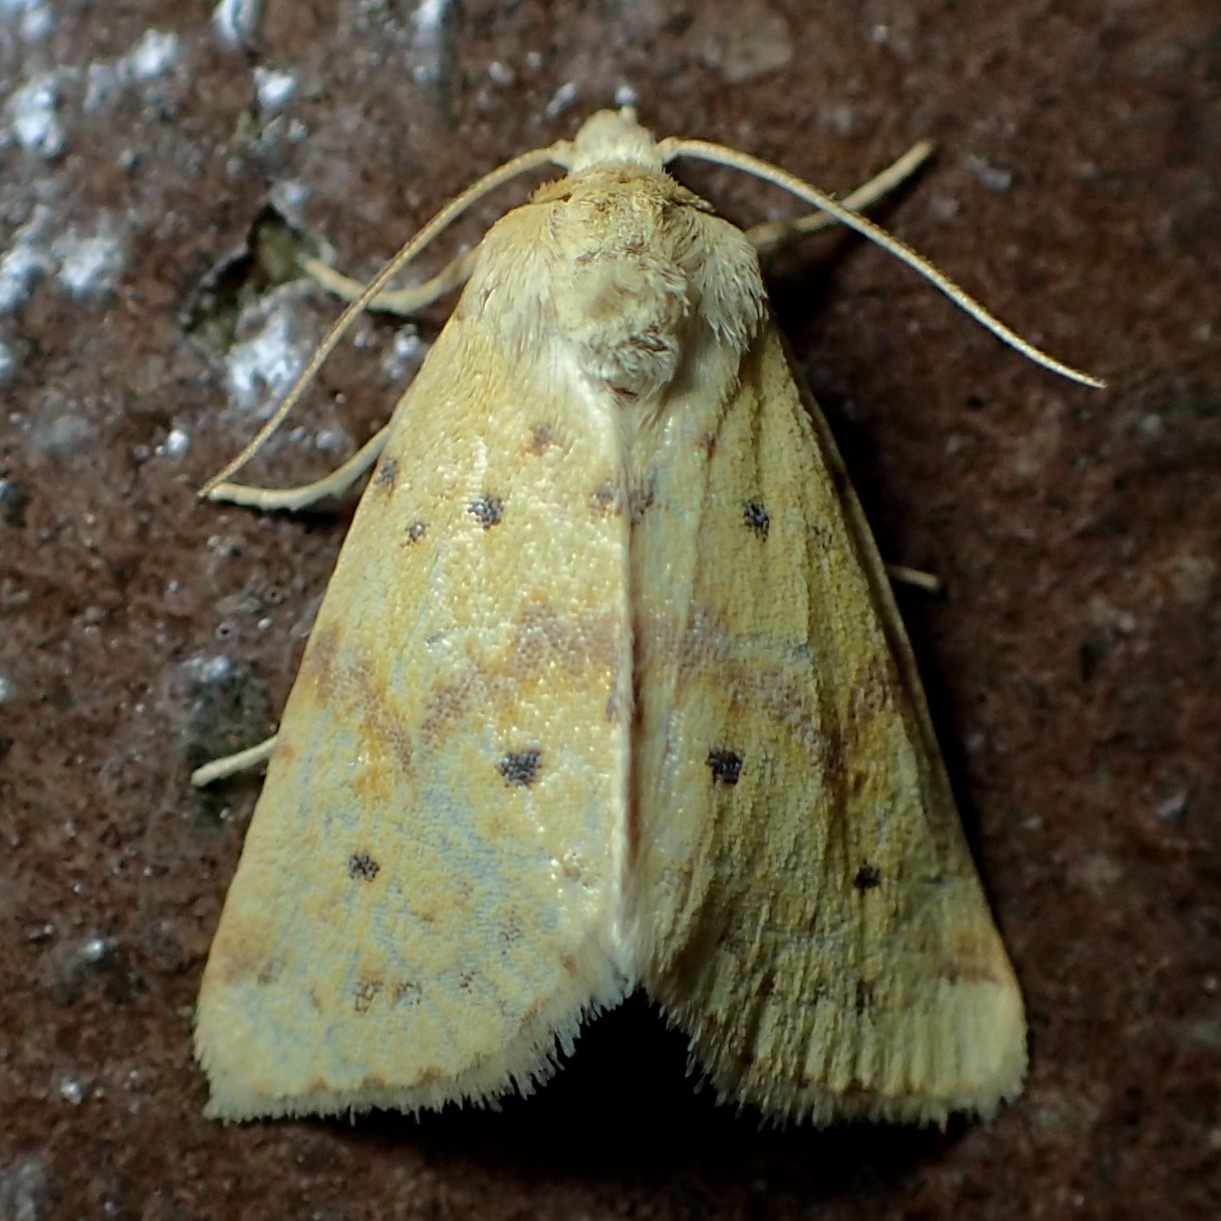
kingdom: Animalia
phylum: Arthropoda
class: Insecta
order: Lepidoptera
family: Noctuidae
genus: Azenia
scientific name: Azenia implora
